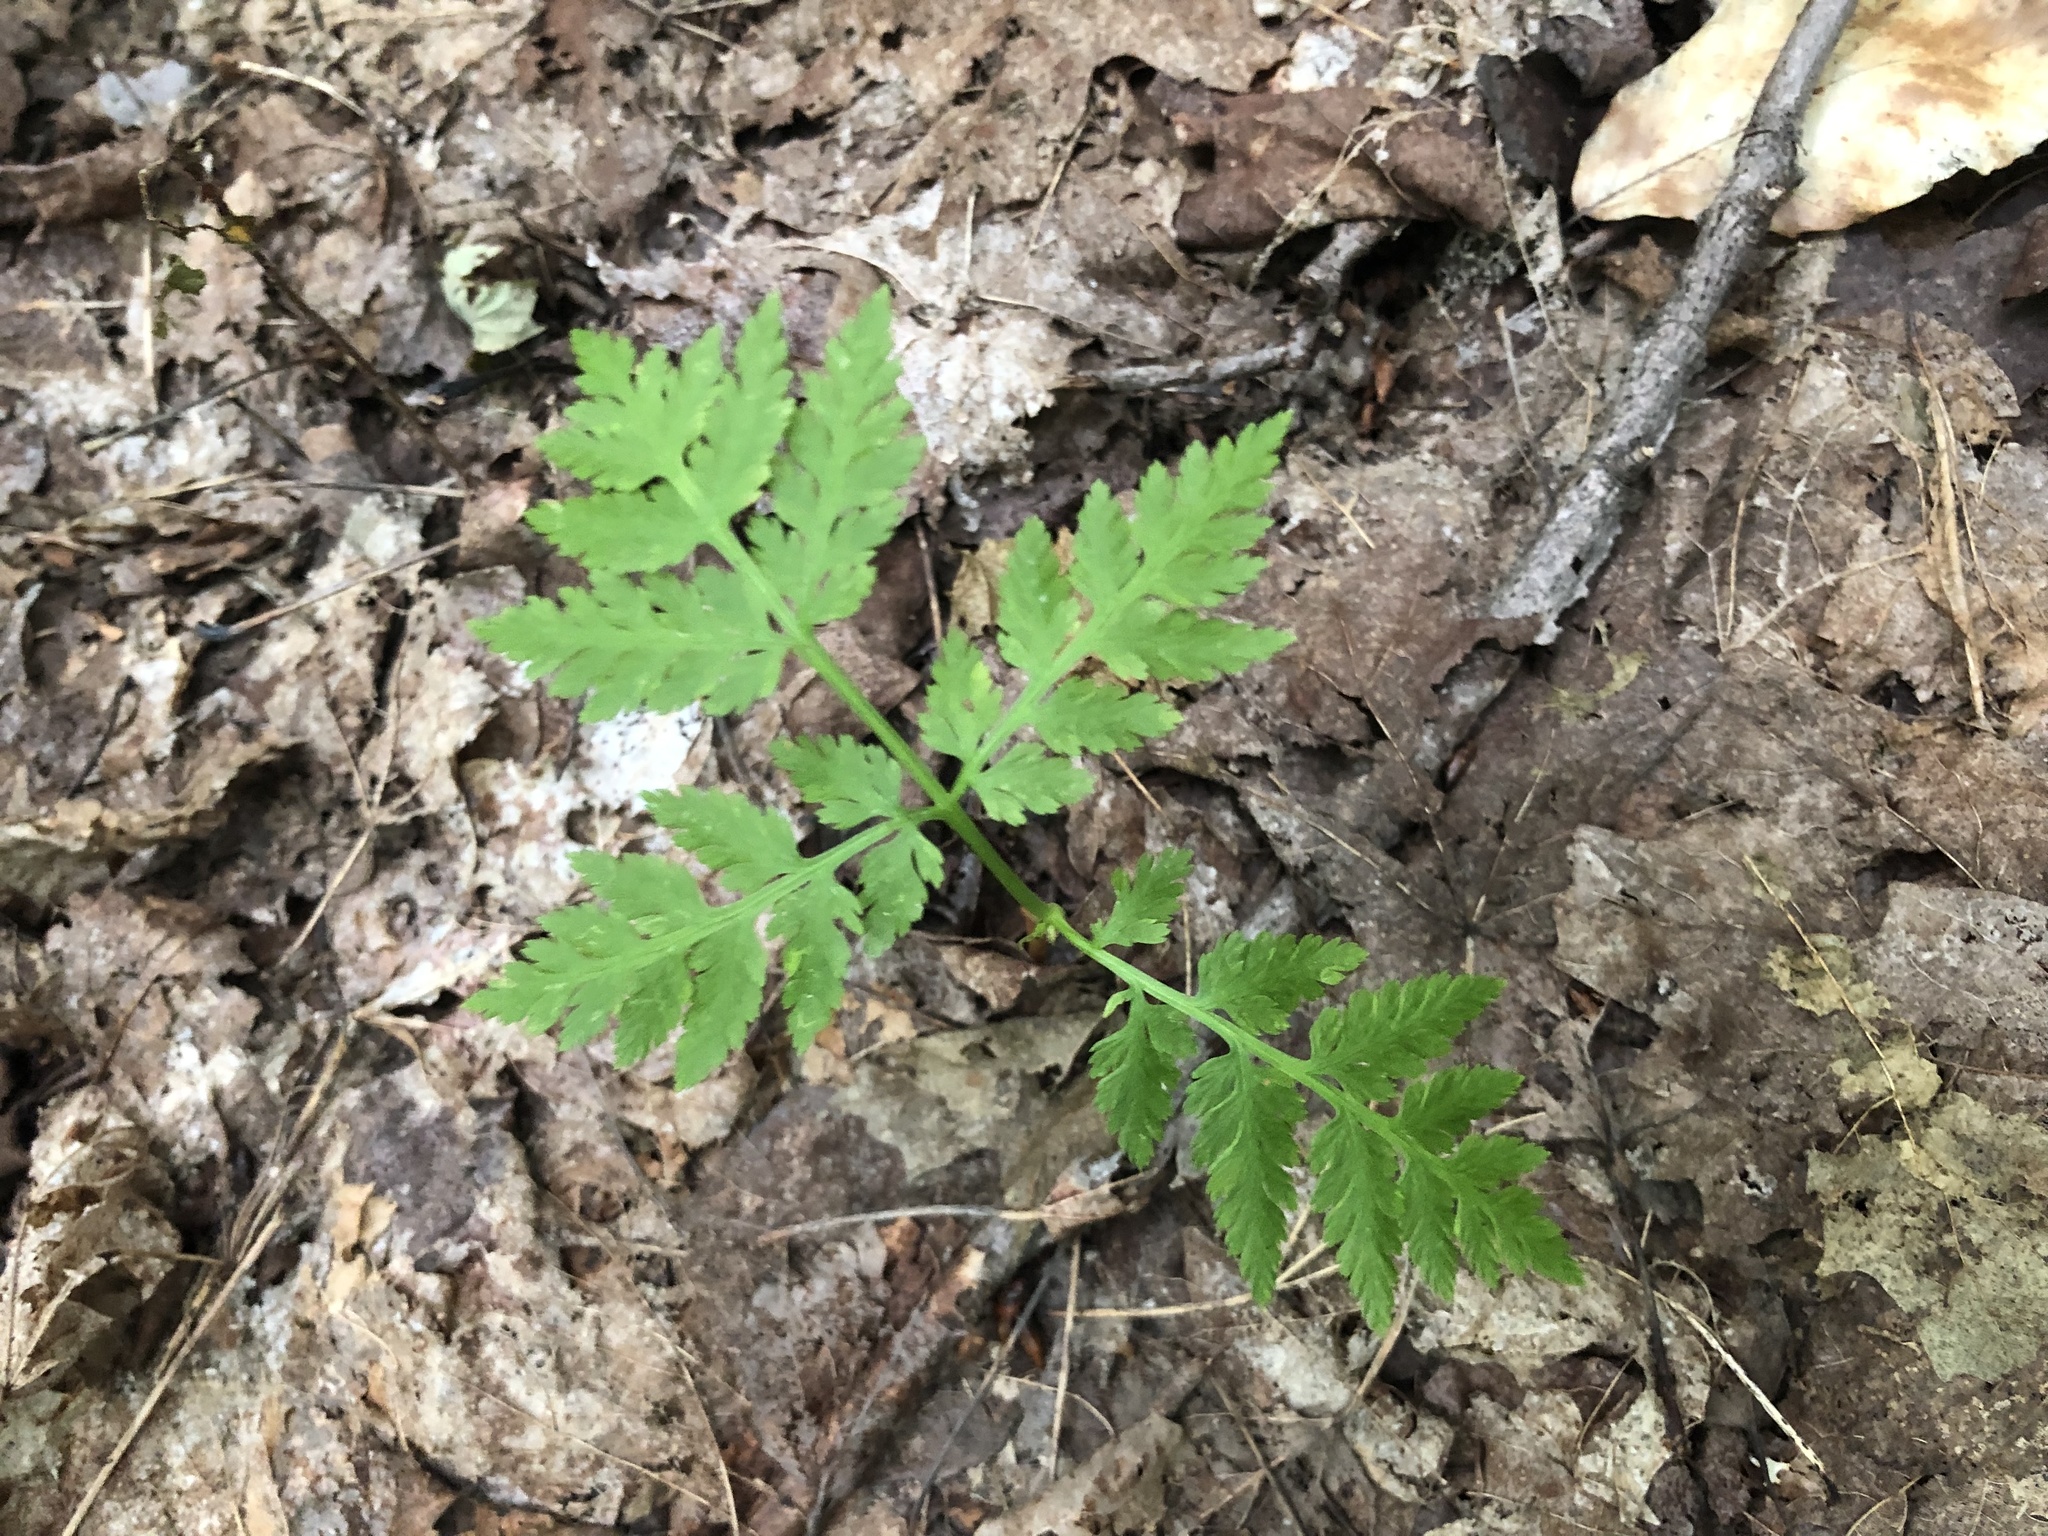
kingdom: Plantae
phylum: Tracheophyta
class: Polypodiopsida
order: Ophioglossales
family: Ophioglossaceae
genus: Botrypus
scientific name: Botrypus virginianus
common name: Common grapefern
